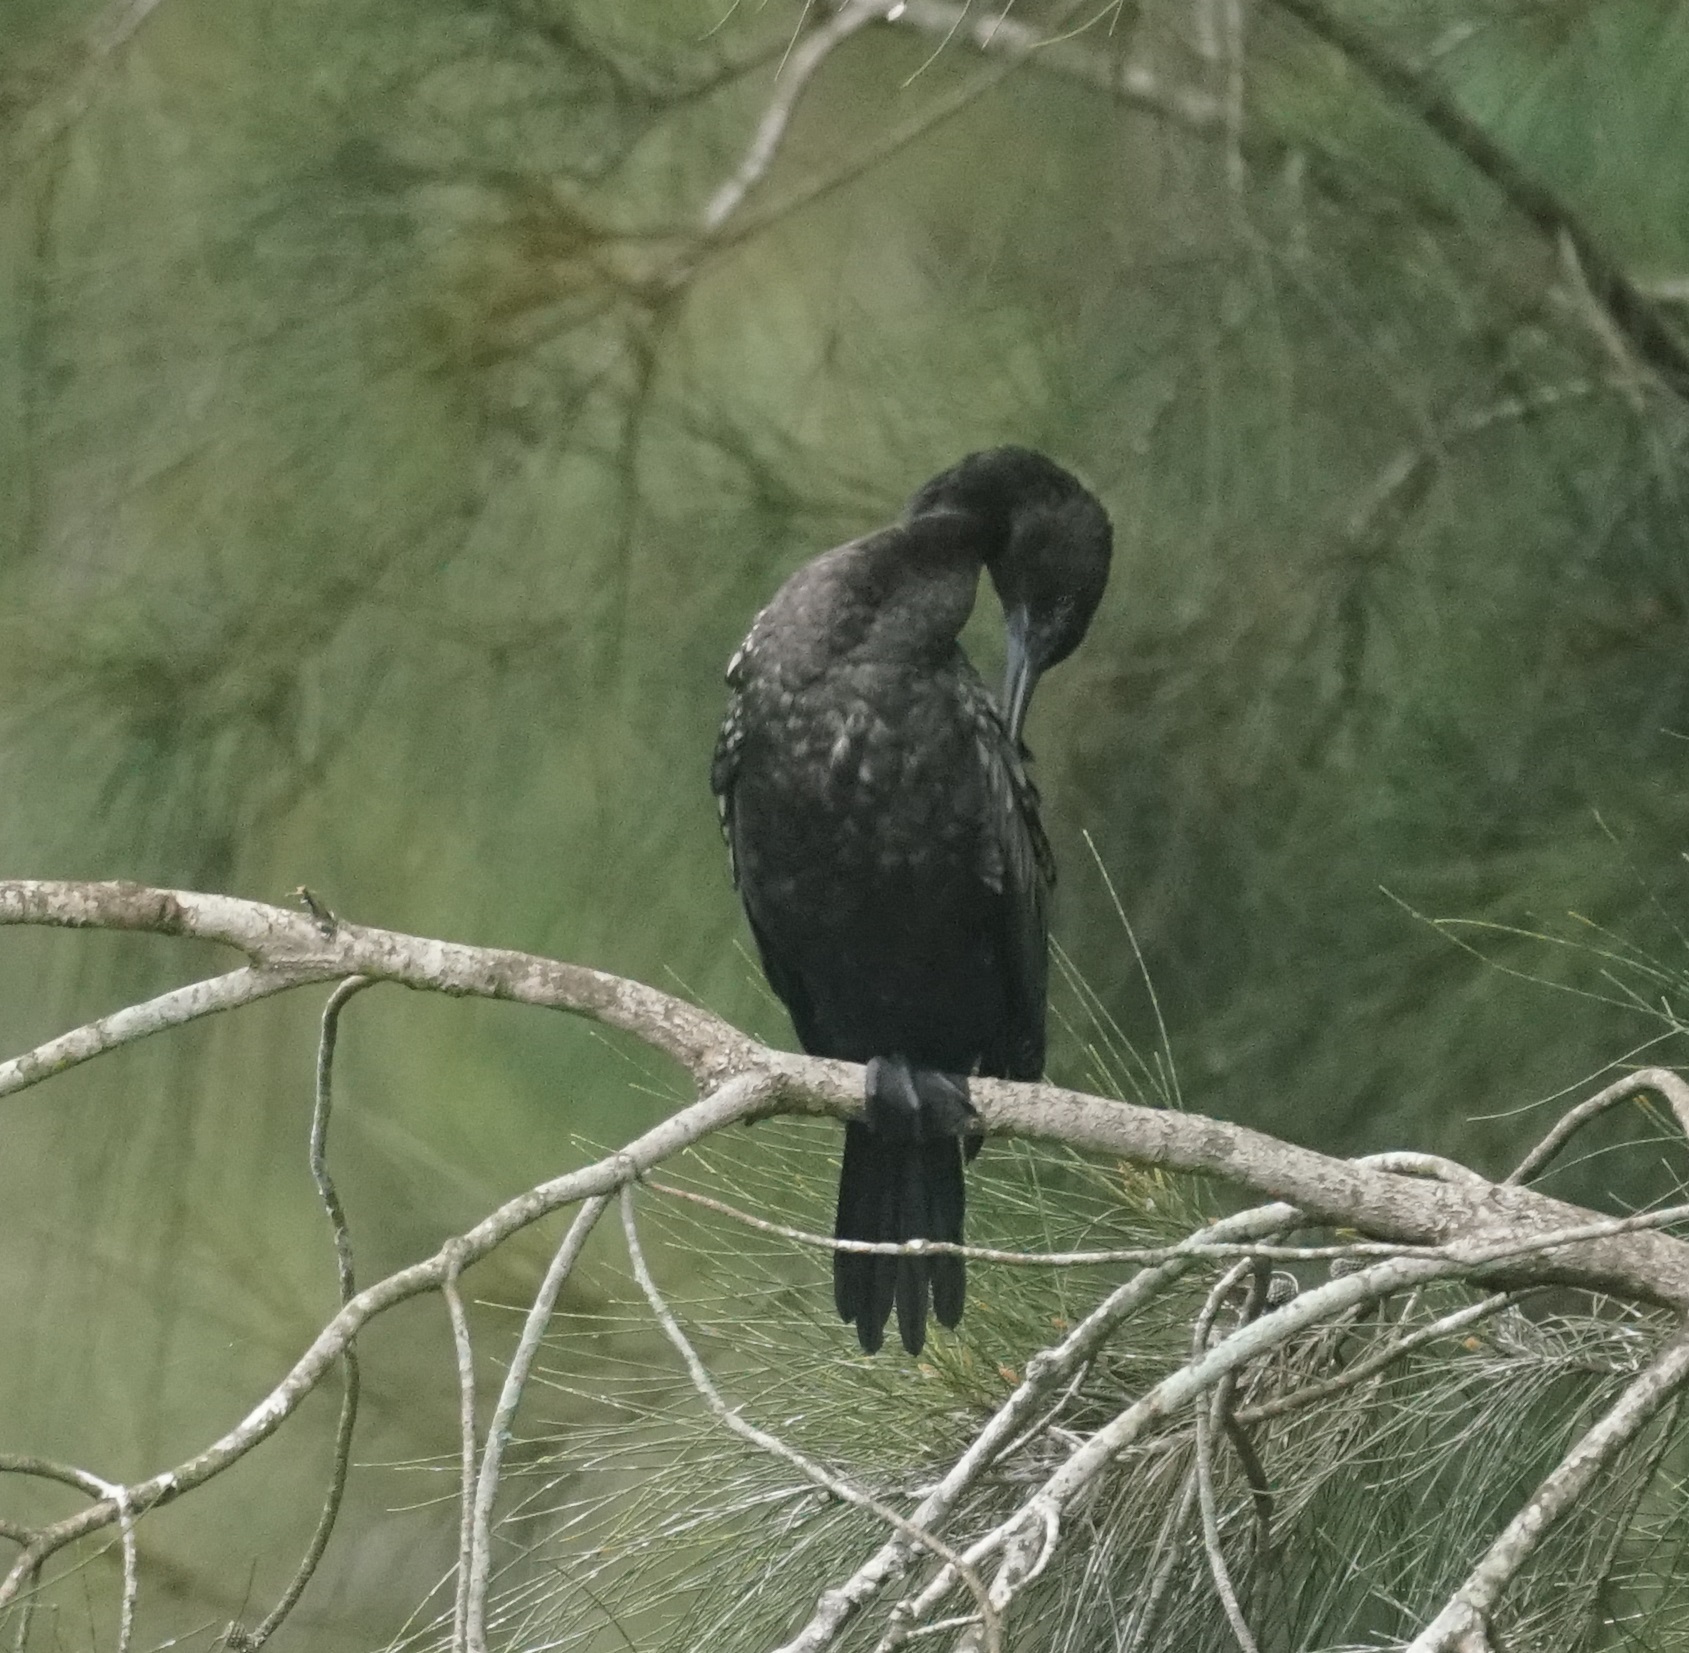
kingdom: Animalia
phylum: Chordata
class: Aves
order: Suliformes
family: Phalacrocoracidae
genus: Phalacrocorax
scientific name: Phalacrocorax sulcirostris
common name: Little black cormorant
